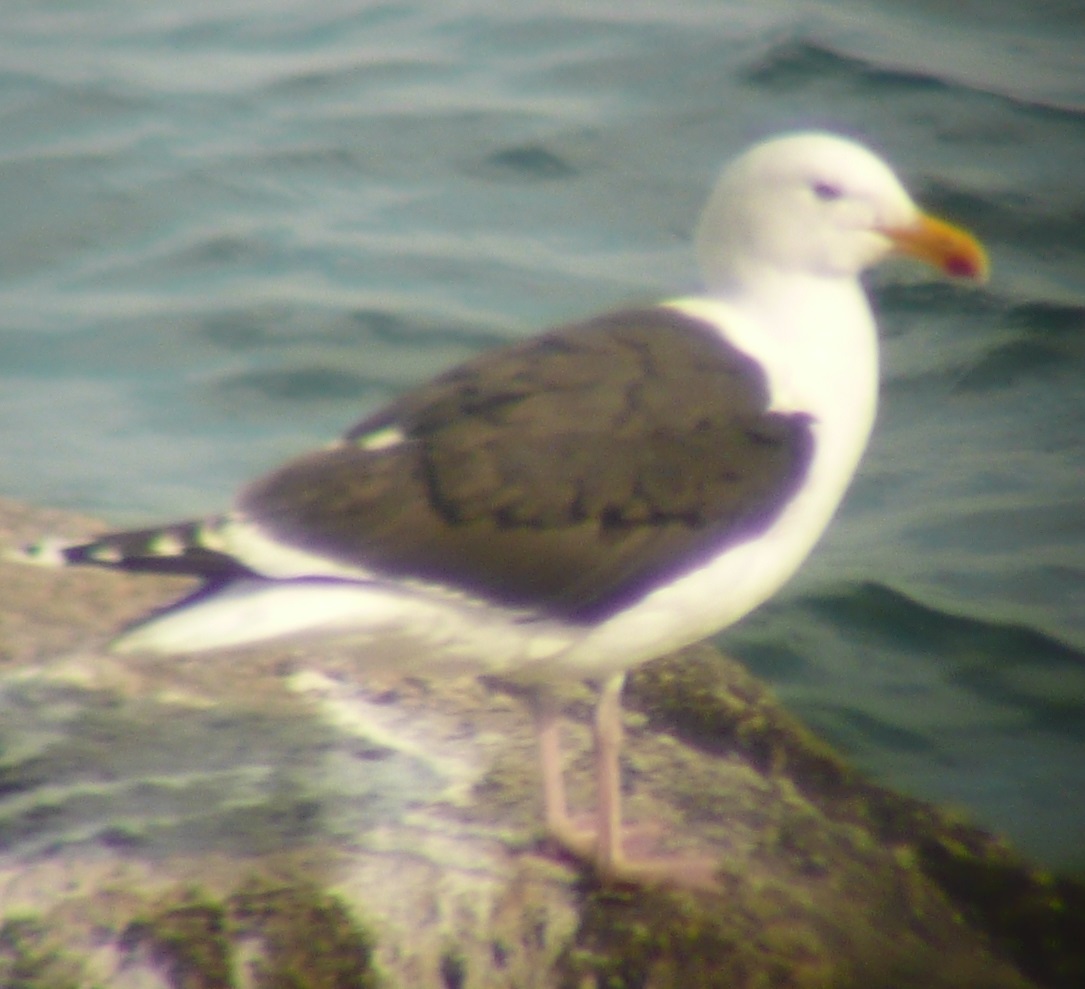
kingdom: Animalia
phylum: Chordata
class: Aves
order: Charadriiformes
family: Laridae
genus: Larus
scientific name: Larus marinus
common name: Great black-backed gull
